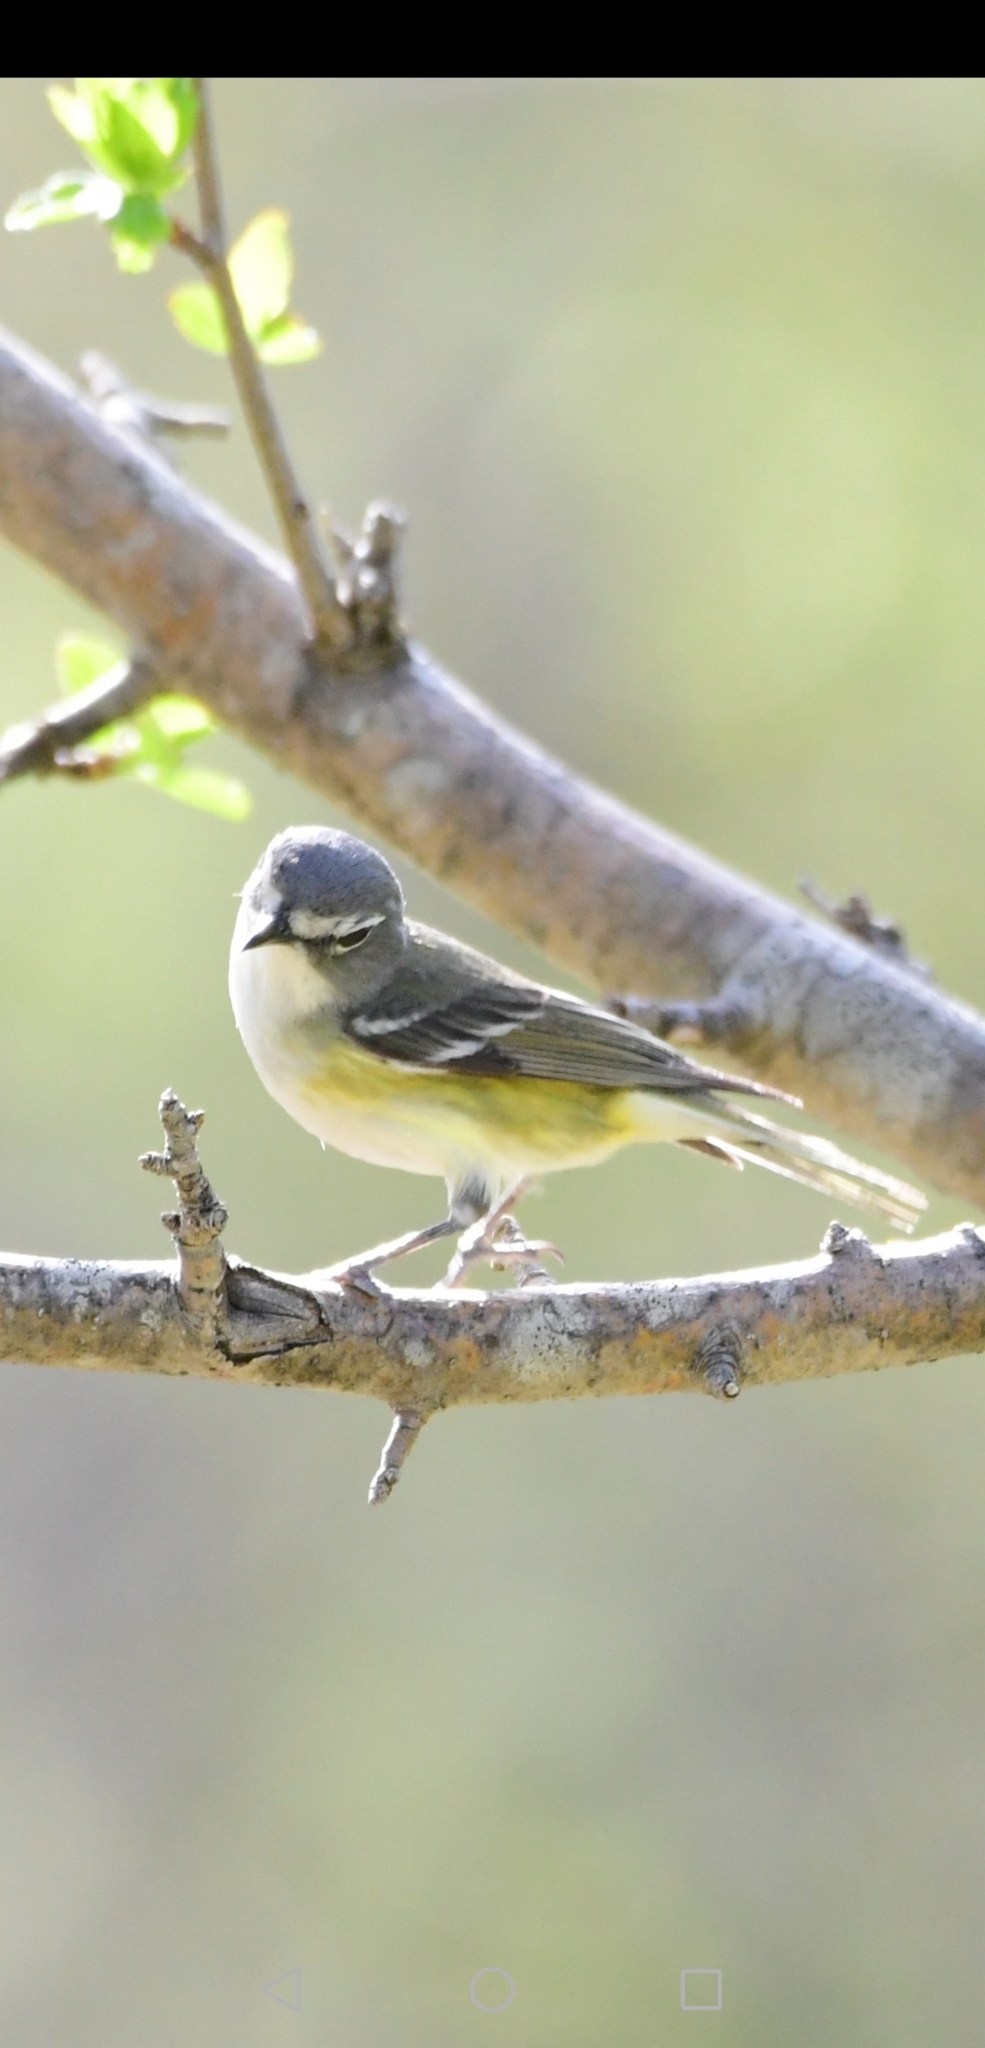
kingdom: Animalia
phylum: Chordata
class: Aves
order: Passeriformes
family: Vireonidae
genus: Vireo
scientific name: Vireo solitarius
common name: Blue-headed vireo
